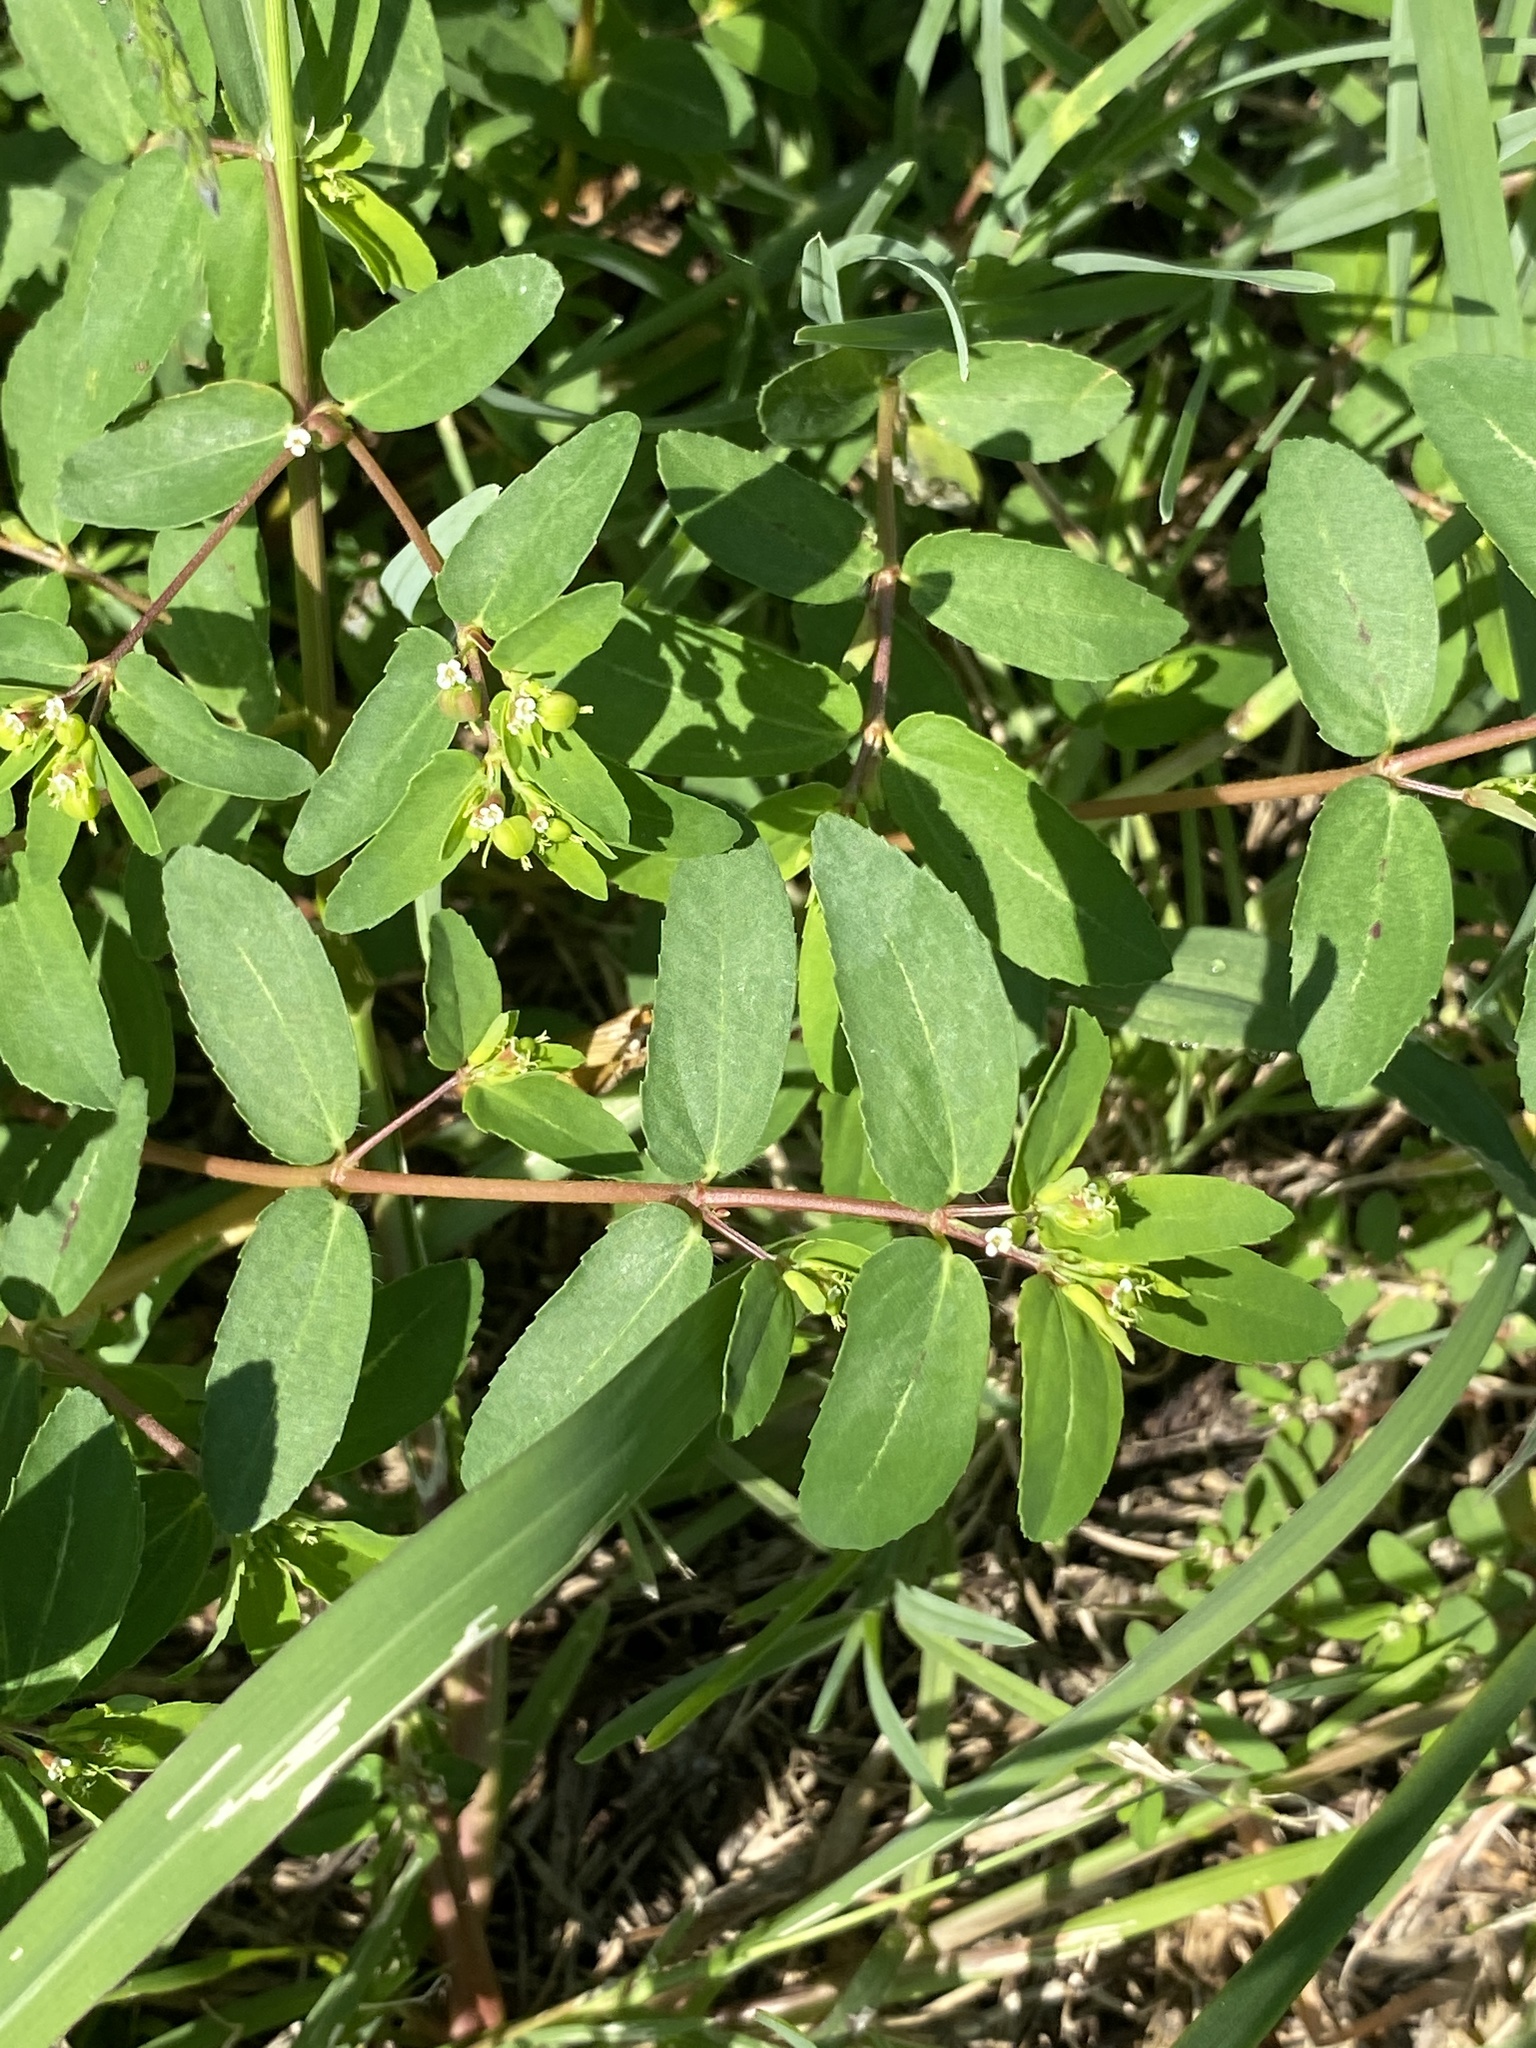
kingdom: Plantae
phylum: Tracheophyta
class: Magnoliopsida
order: Malpighiales
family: Euphorbiaceae
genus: Euphorbia
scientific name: Euphorbia nutans
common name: Eyebane
